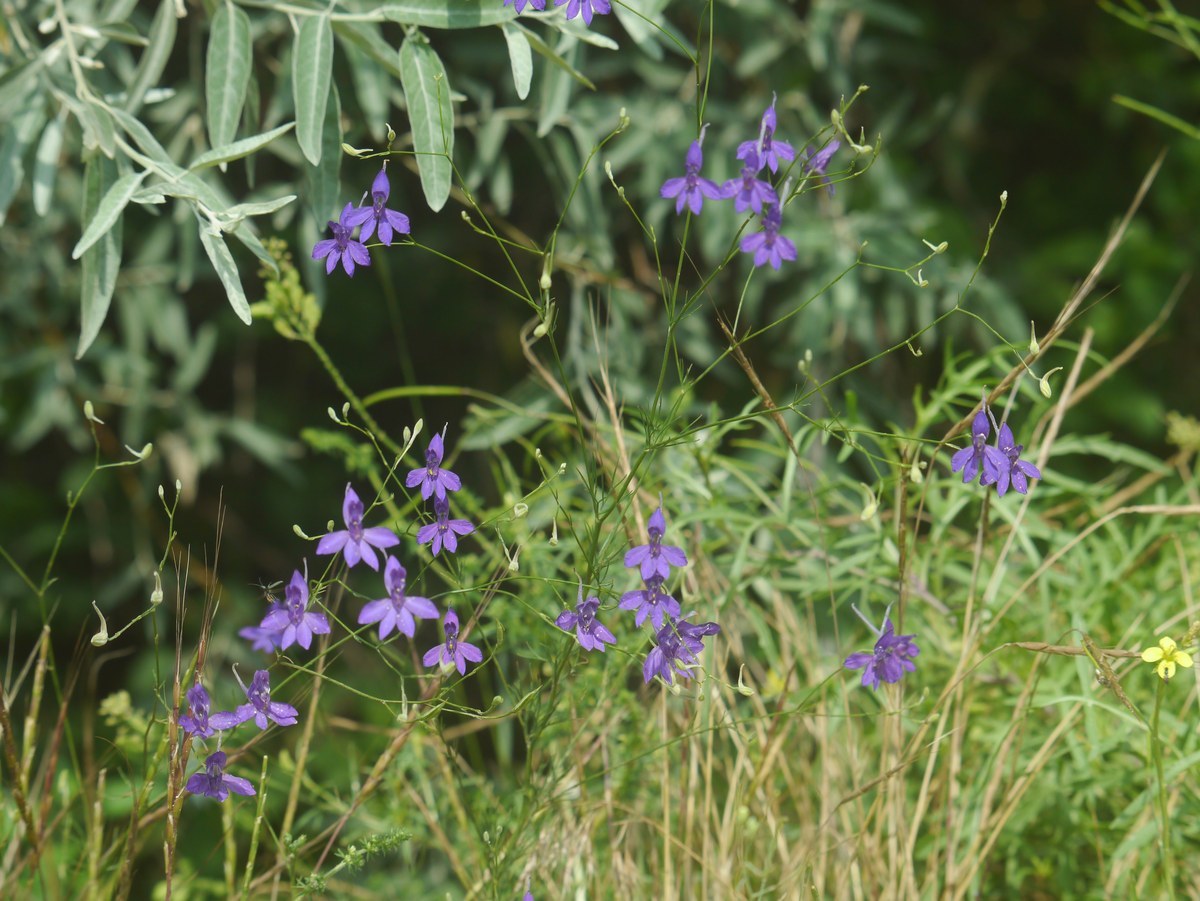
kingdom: Plantae
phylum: Tracheophyta
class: Magnoliopsida
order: Ranunculales
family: Ranunculaceae
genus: Delphinium
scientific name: Delphinium consolida
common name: Branching larkspur
